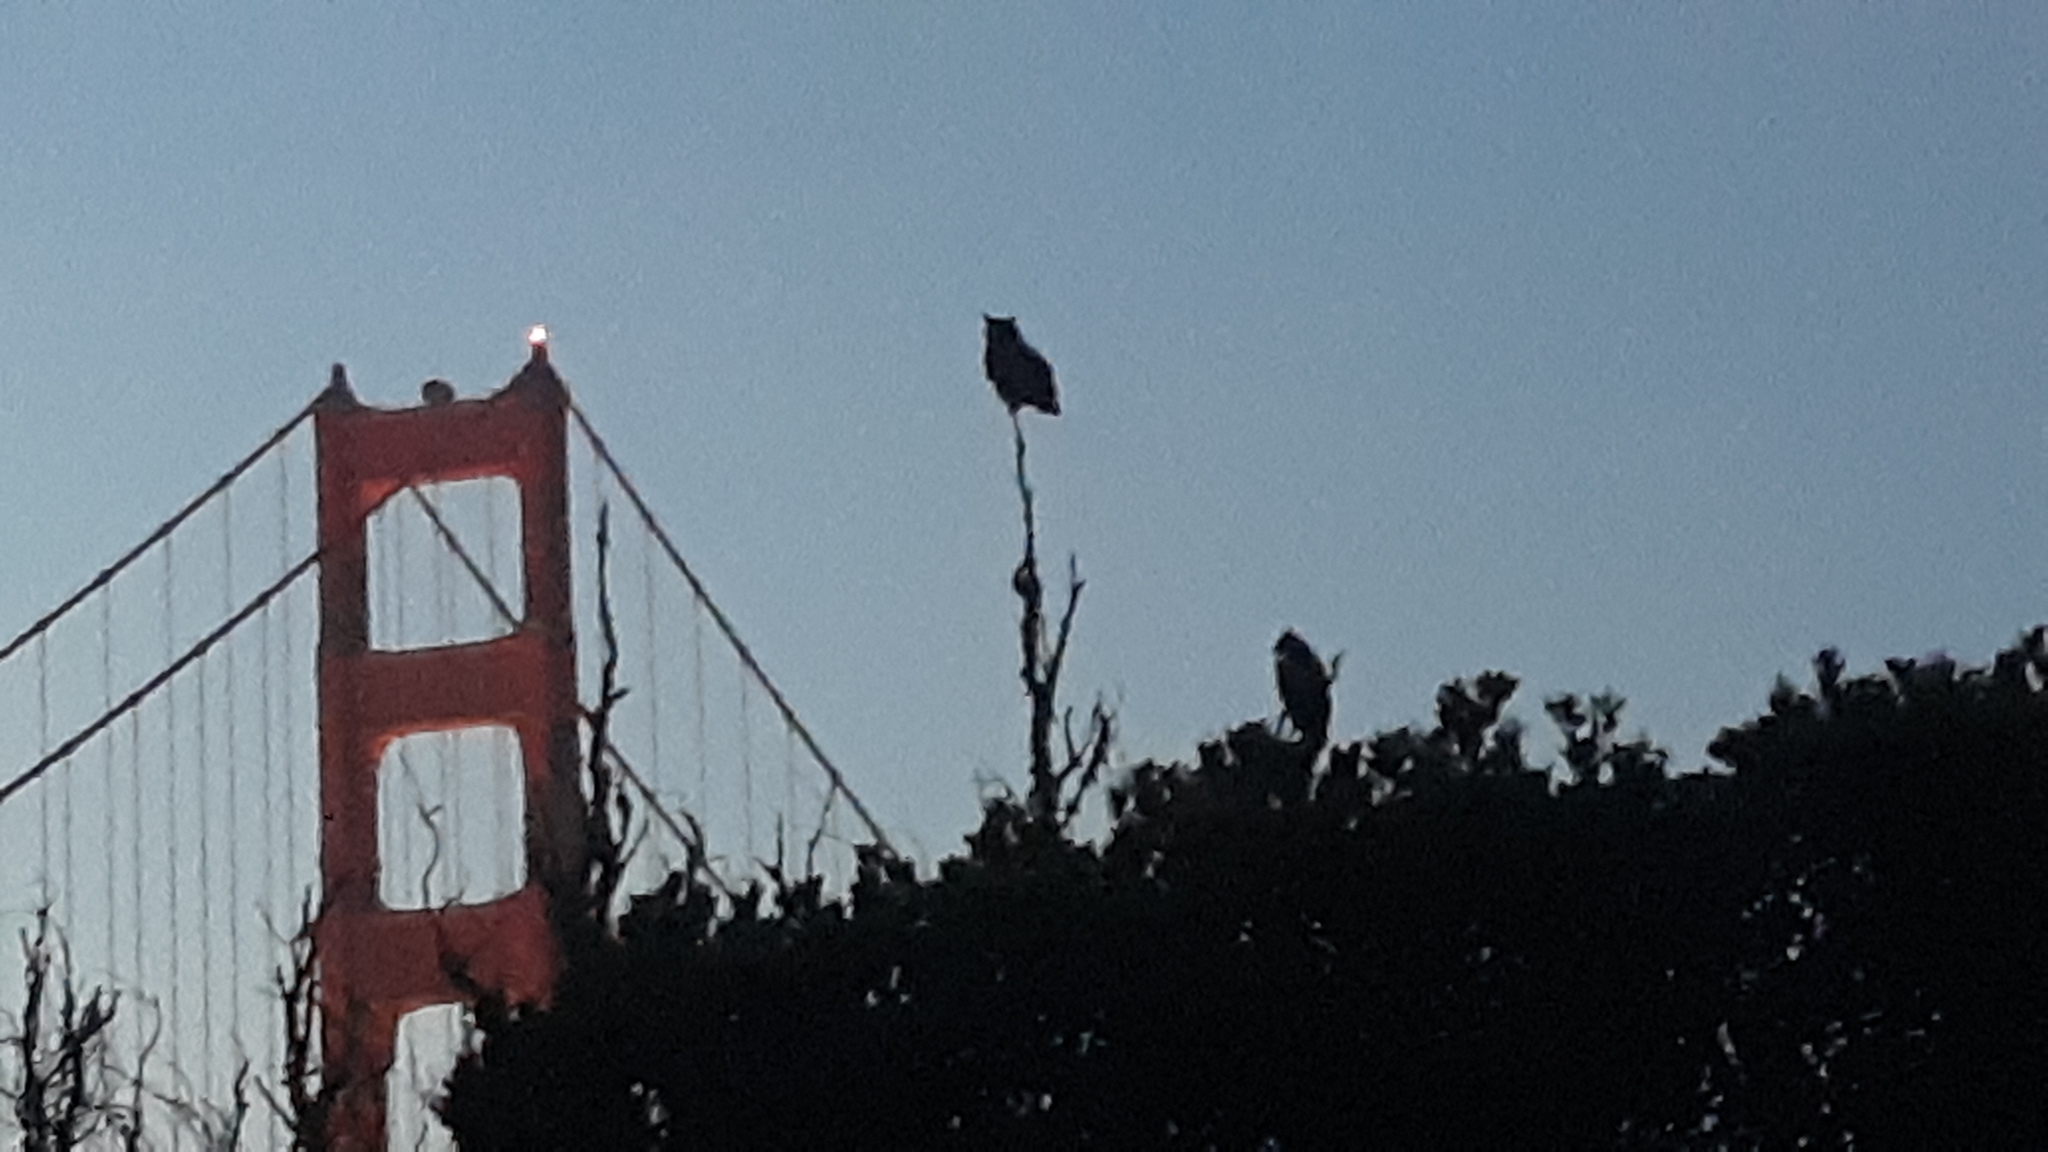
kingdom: Animalia
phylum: Chordata
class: Aves
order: Strigiformes
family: Strigidae
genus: Bubo
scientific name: Bubo virginianus
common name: Great horned owl
